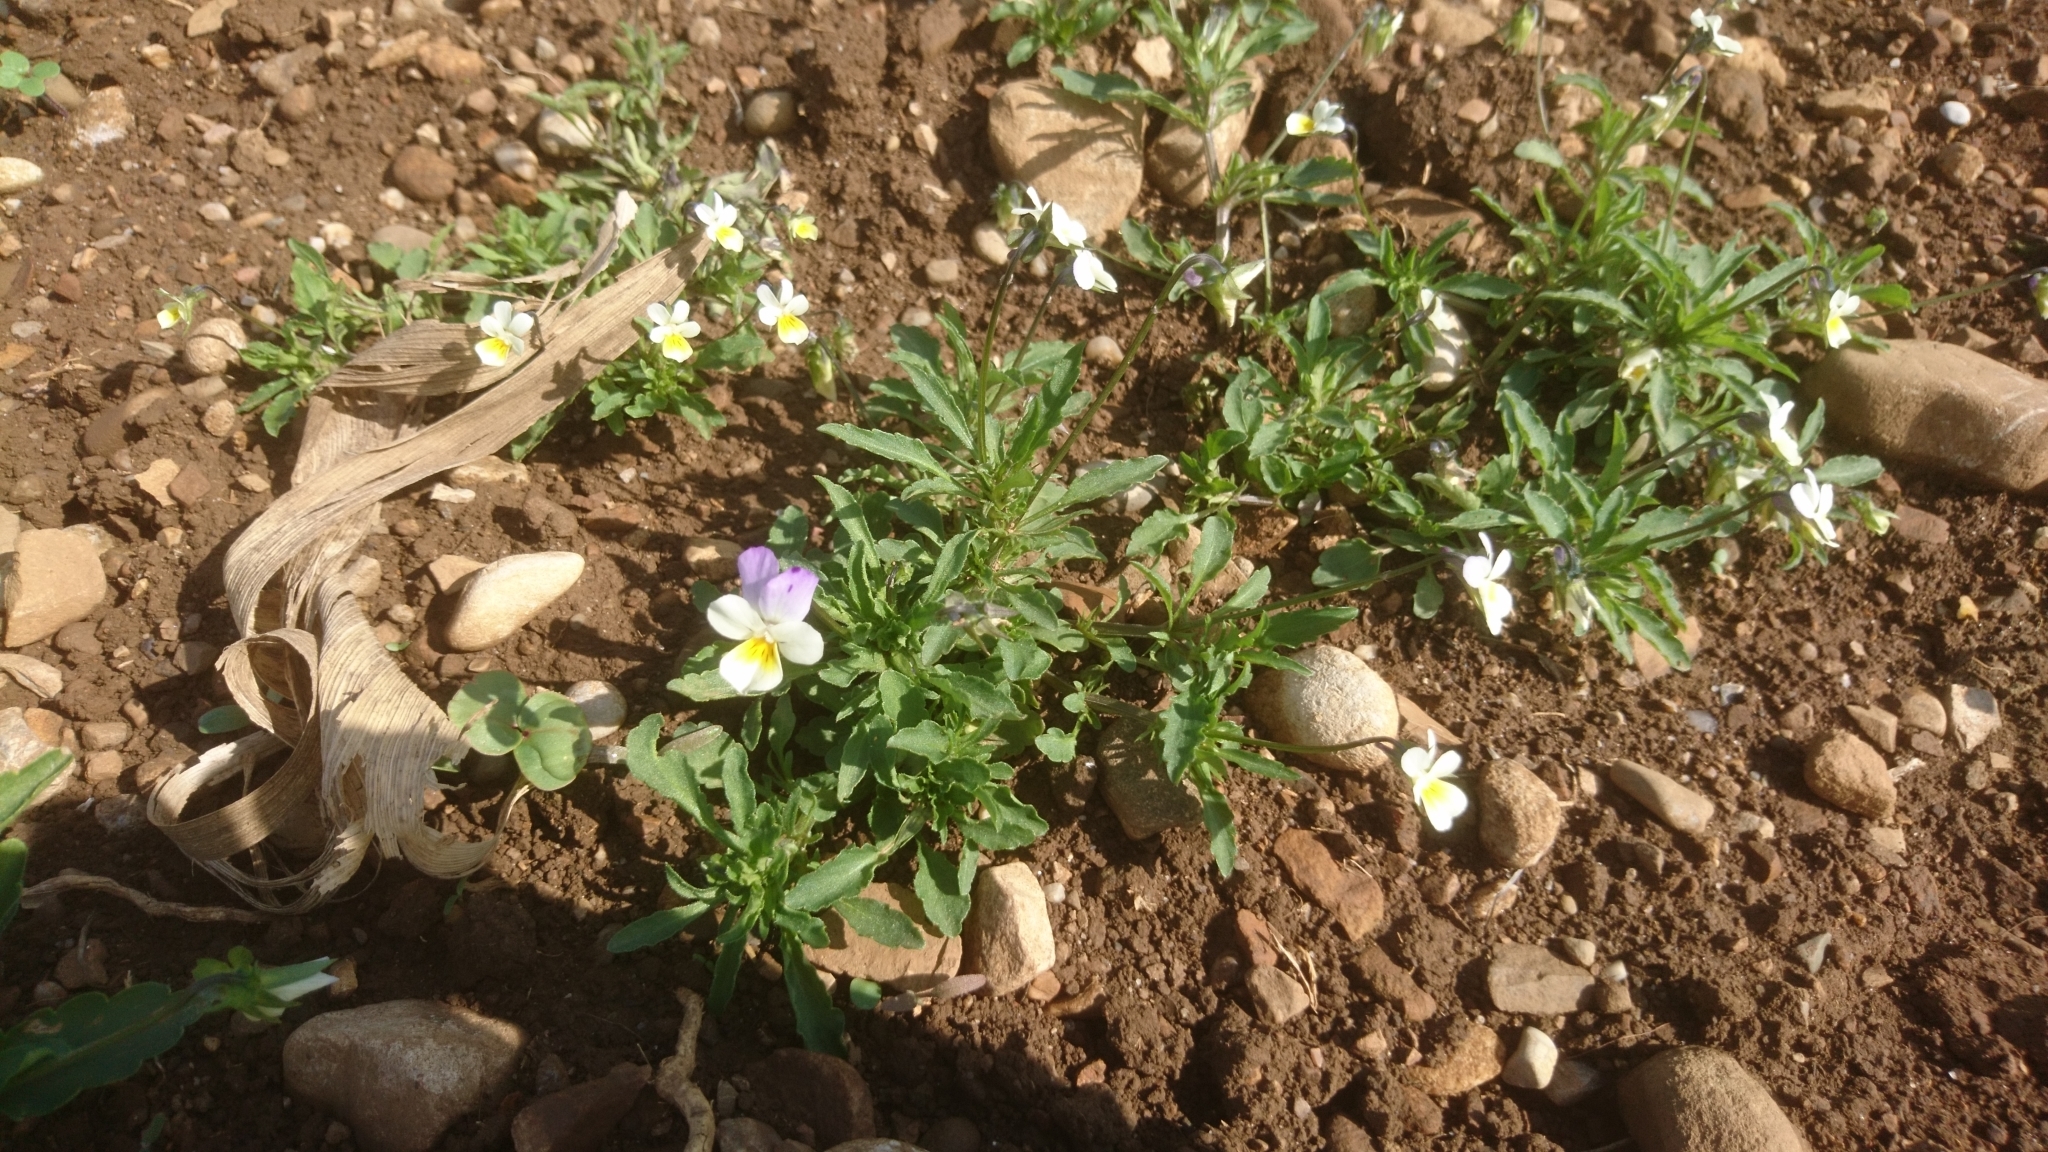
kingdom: Plantae
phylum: Tracheophyta
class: Magnoliopsida
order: Malpighiales
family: Violaceae
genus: Viola
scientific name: Viola arvensis
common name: Field pansy
